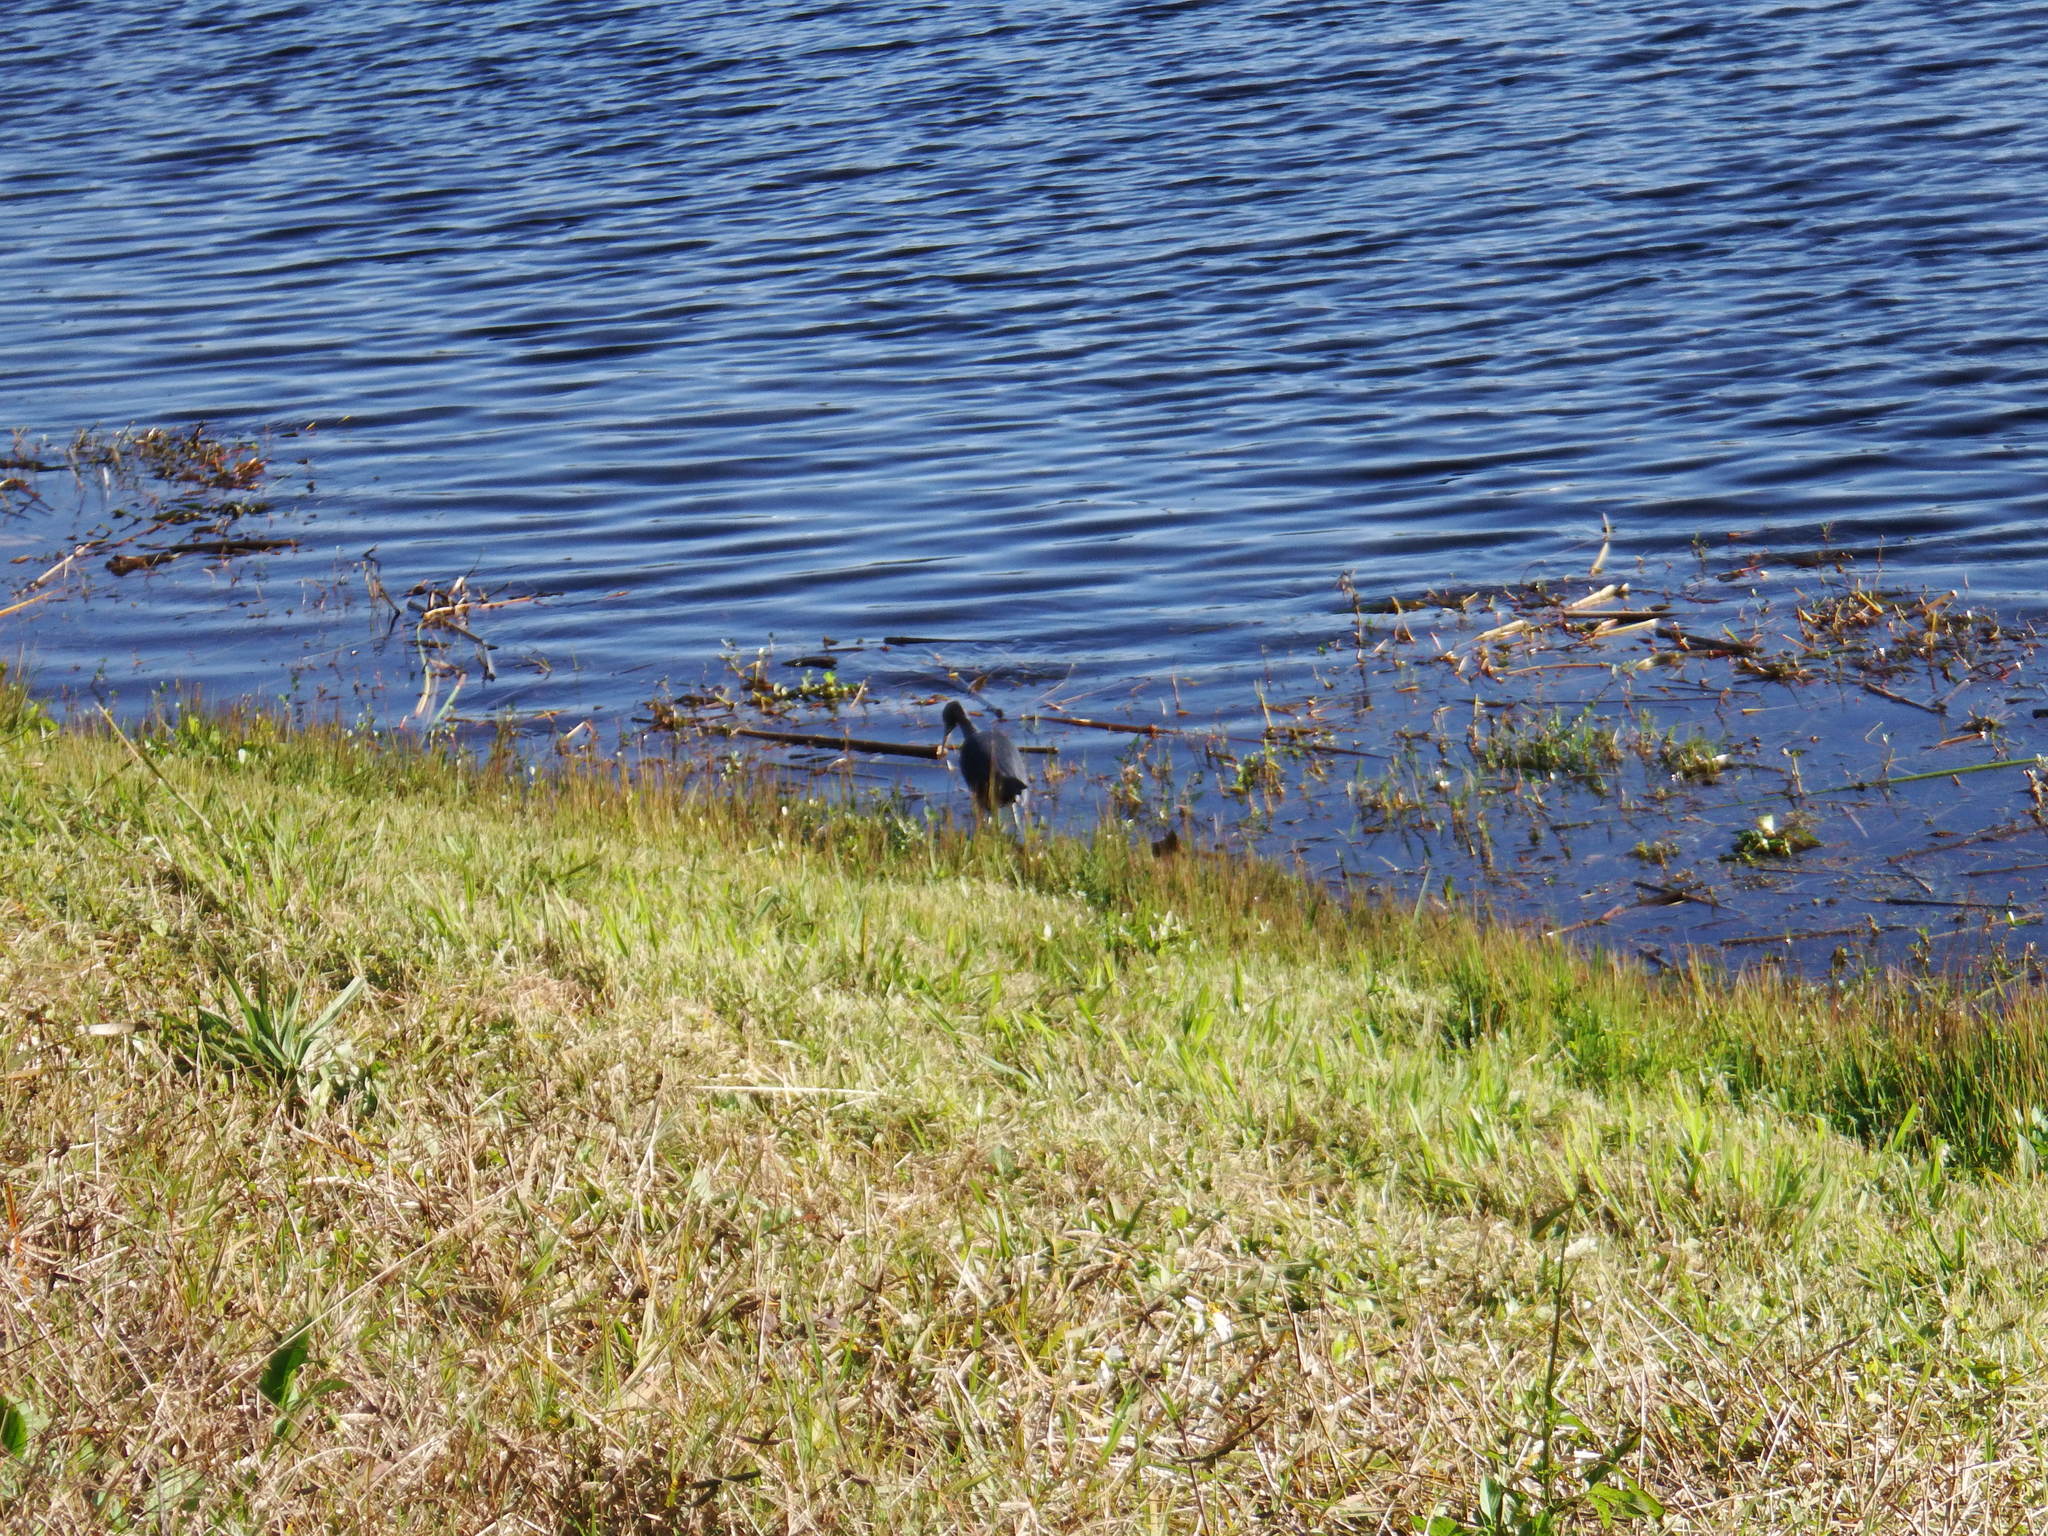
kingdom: Animalia
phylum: Chordata
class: Aves
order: Pelecaniformes
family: Ardeidae
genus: Egretta
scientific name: Egretta caerulea
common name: Little blue heron
